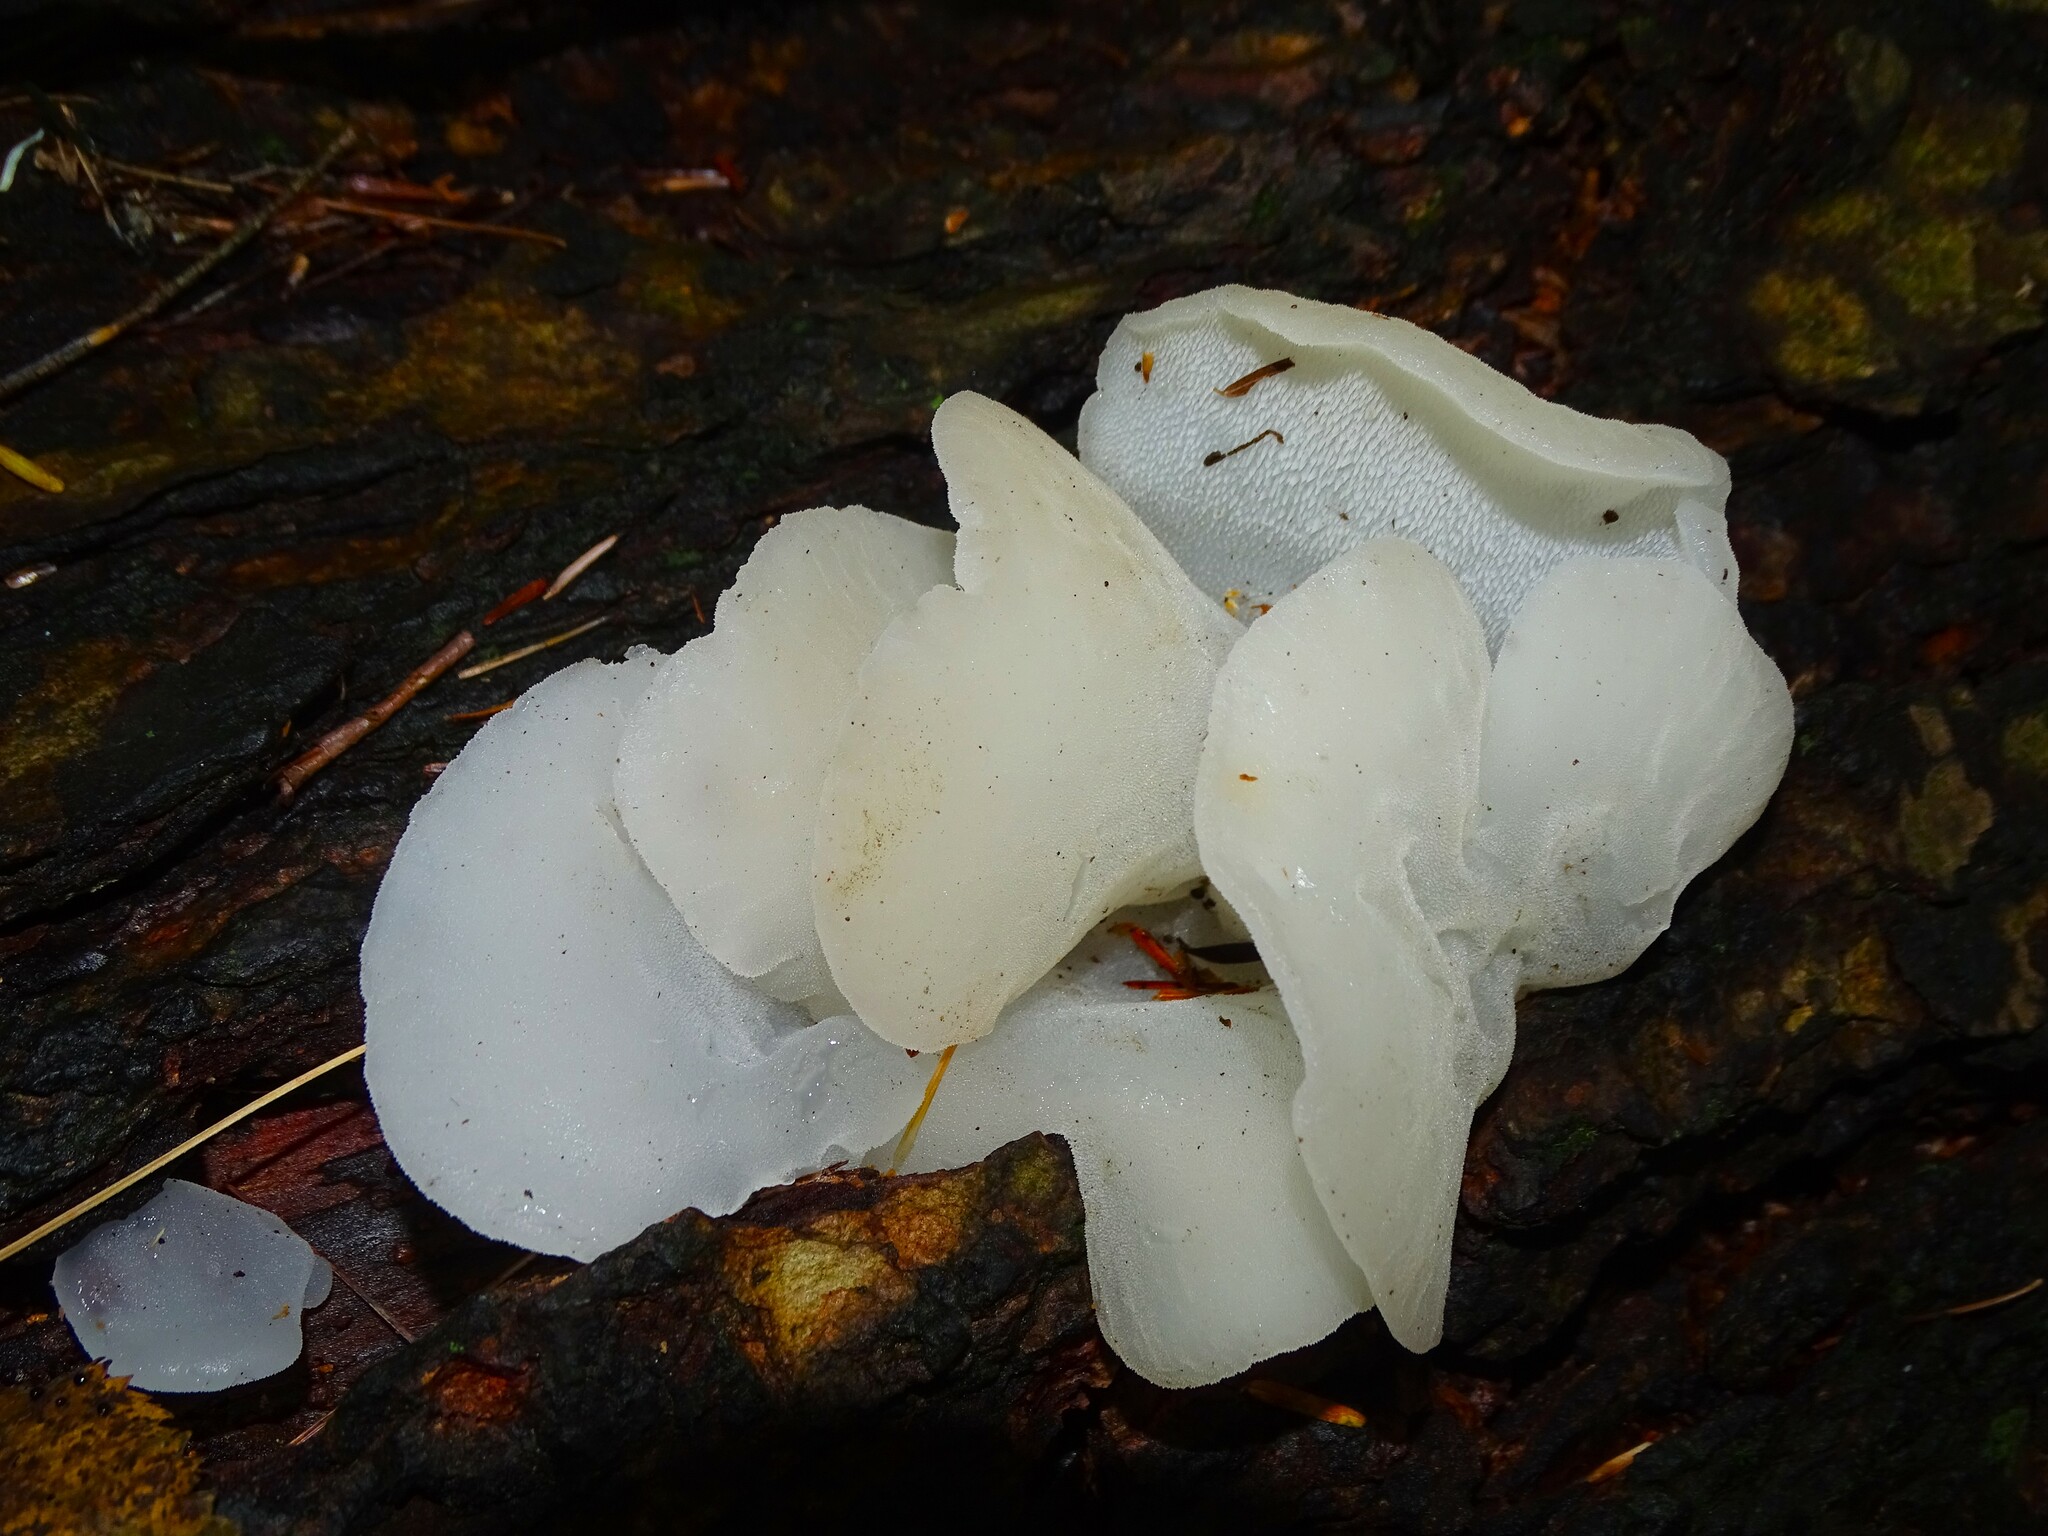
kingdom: Fungi
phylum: Basidiomycota
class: Agaricomycetes
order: Auriculariales
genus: Pseudohydnum
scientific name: Pseudohydnum gelatinosum
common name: Jelly tongue
